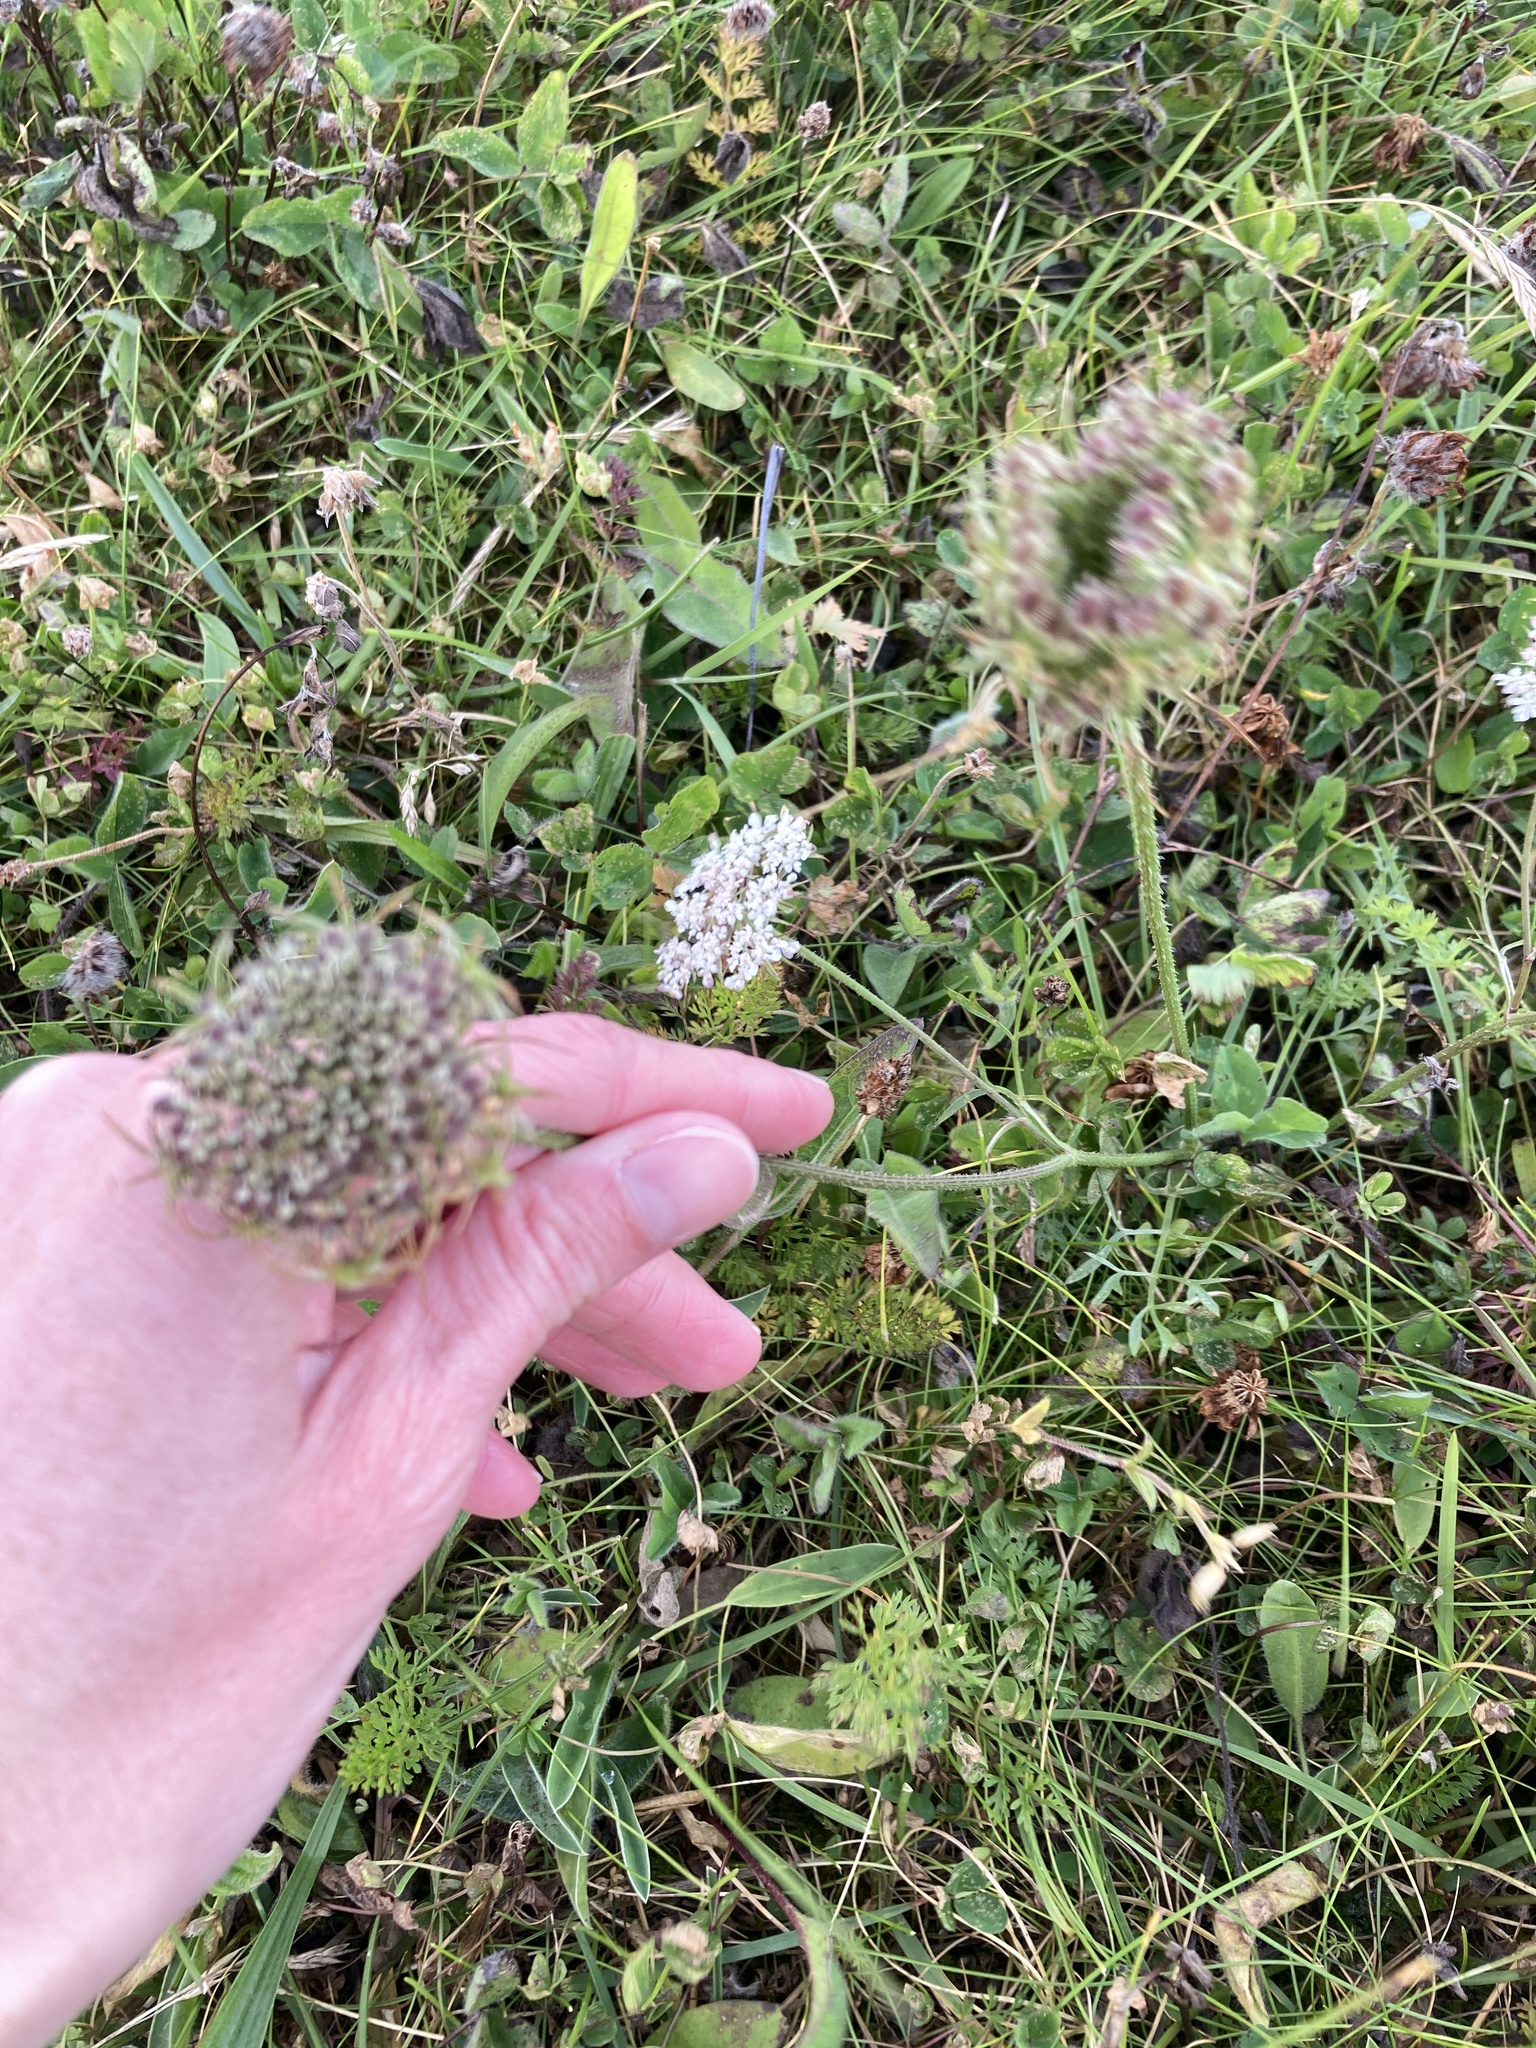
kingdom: Plantae
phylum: Tracheophyta
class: Magnoliopsida
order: Apiales
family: Apiaceae
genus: Daucus
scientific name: Daucus carota
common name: Wild carrot
